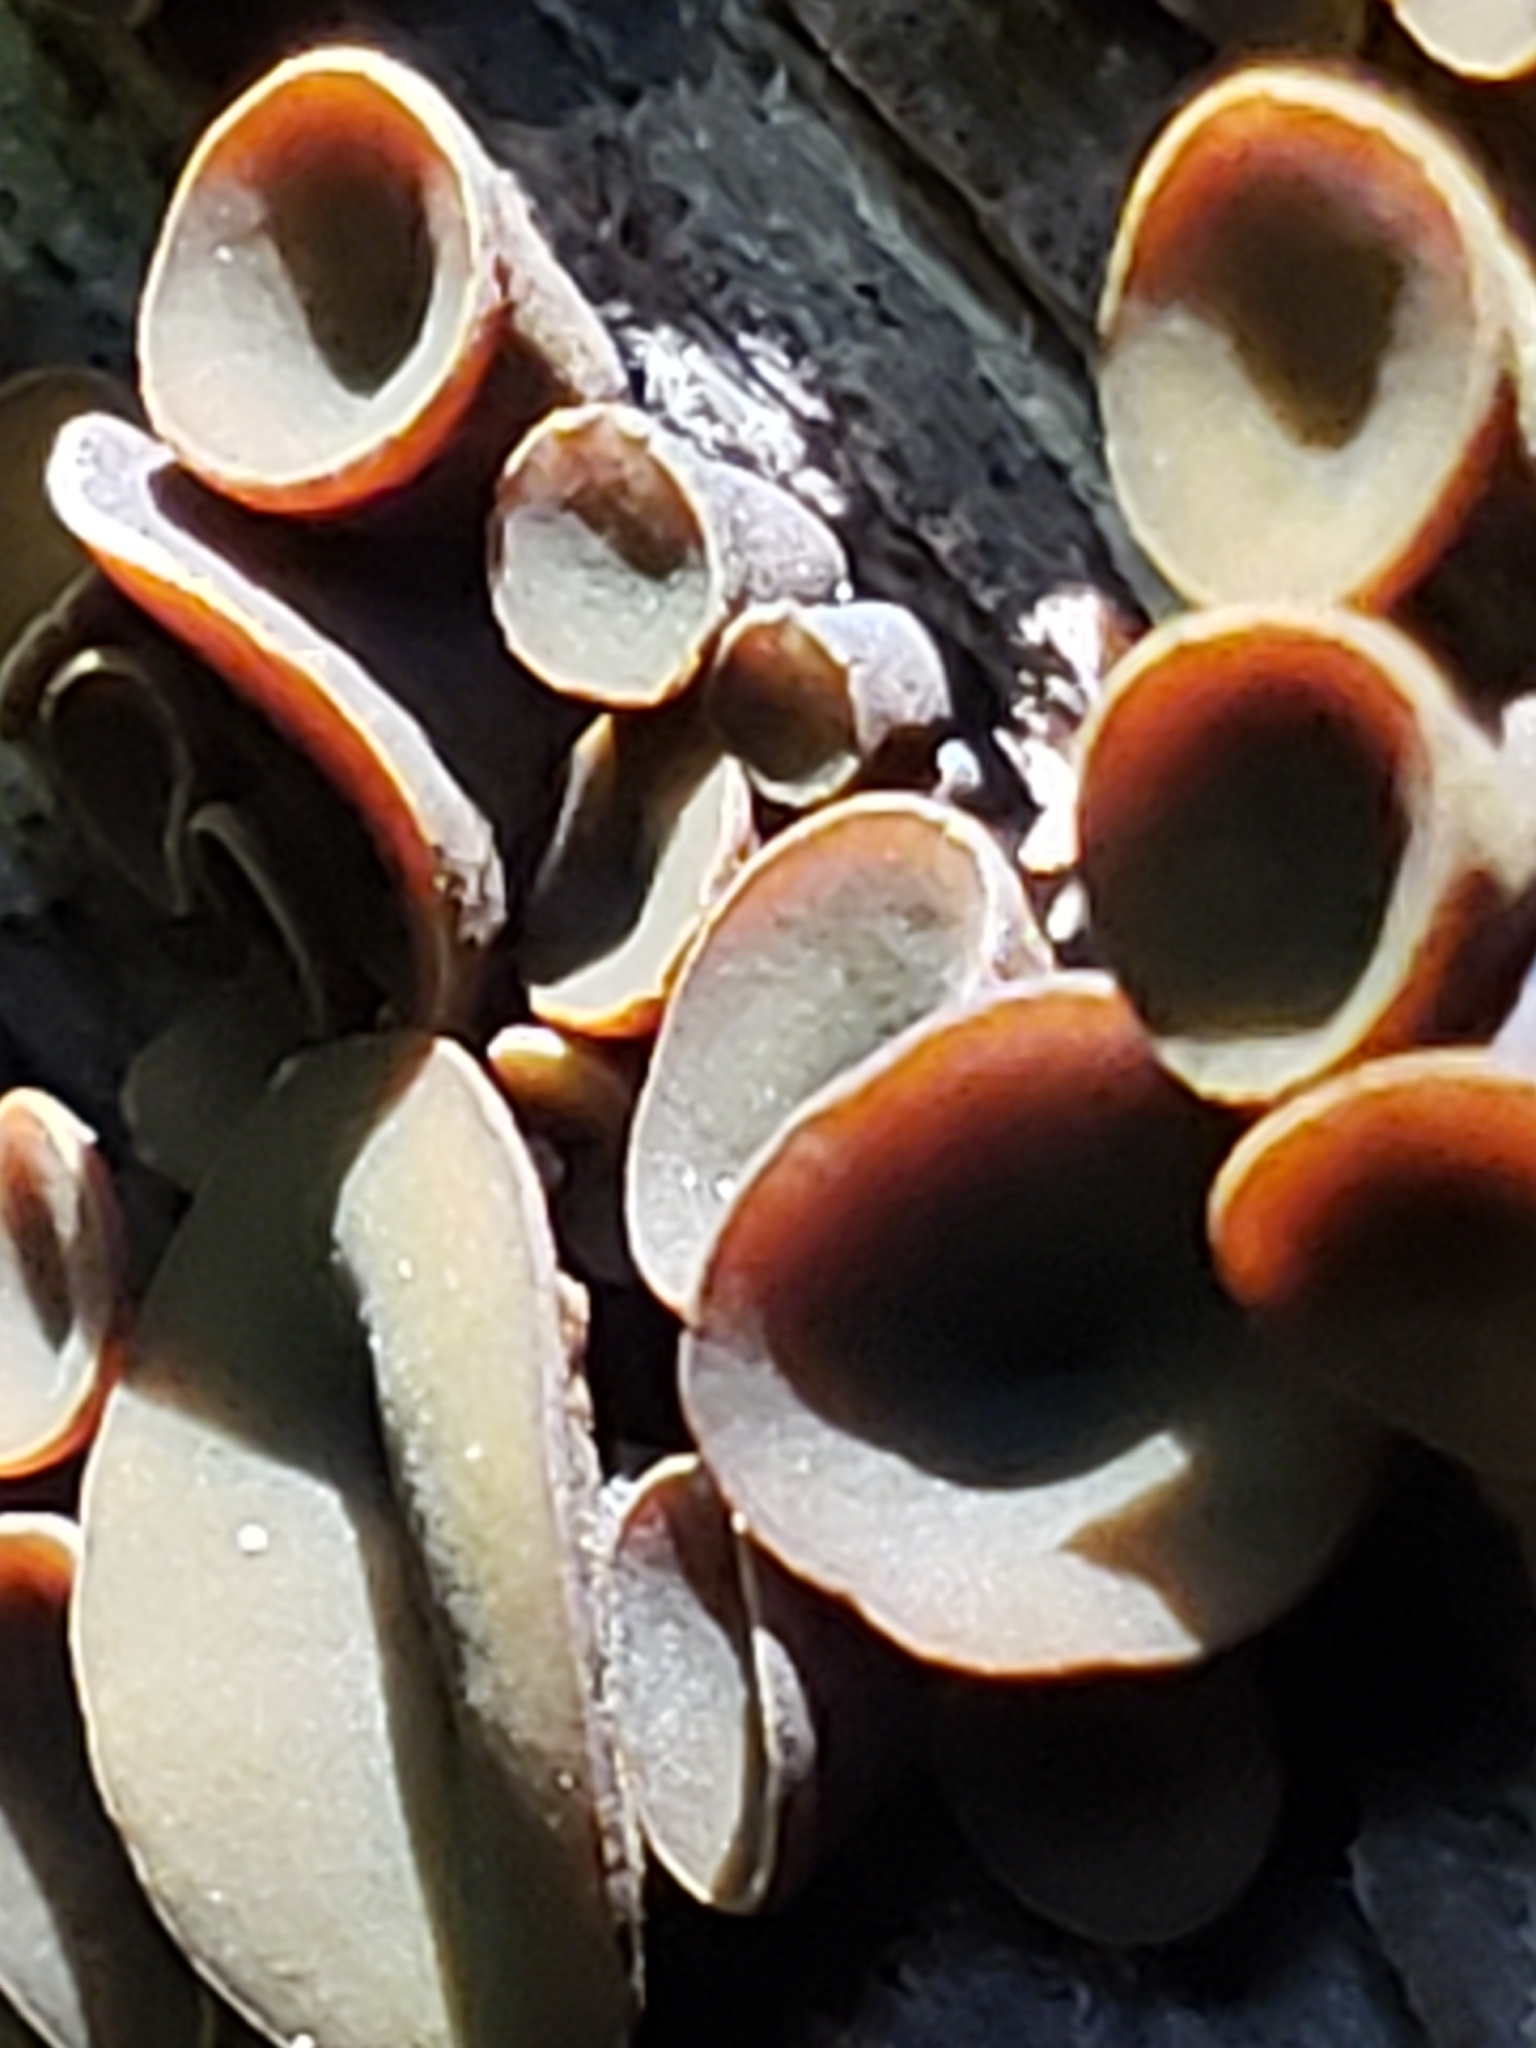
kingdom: Fungi
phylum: Ascomycota
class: Leotiomycetes
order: Helotiales
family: Cenangiaceae
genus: Chlorencoelia
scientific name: Chlorencoelia
